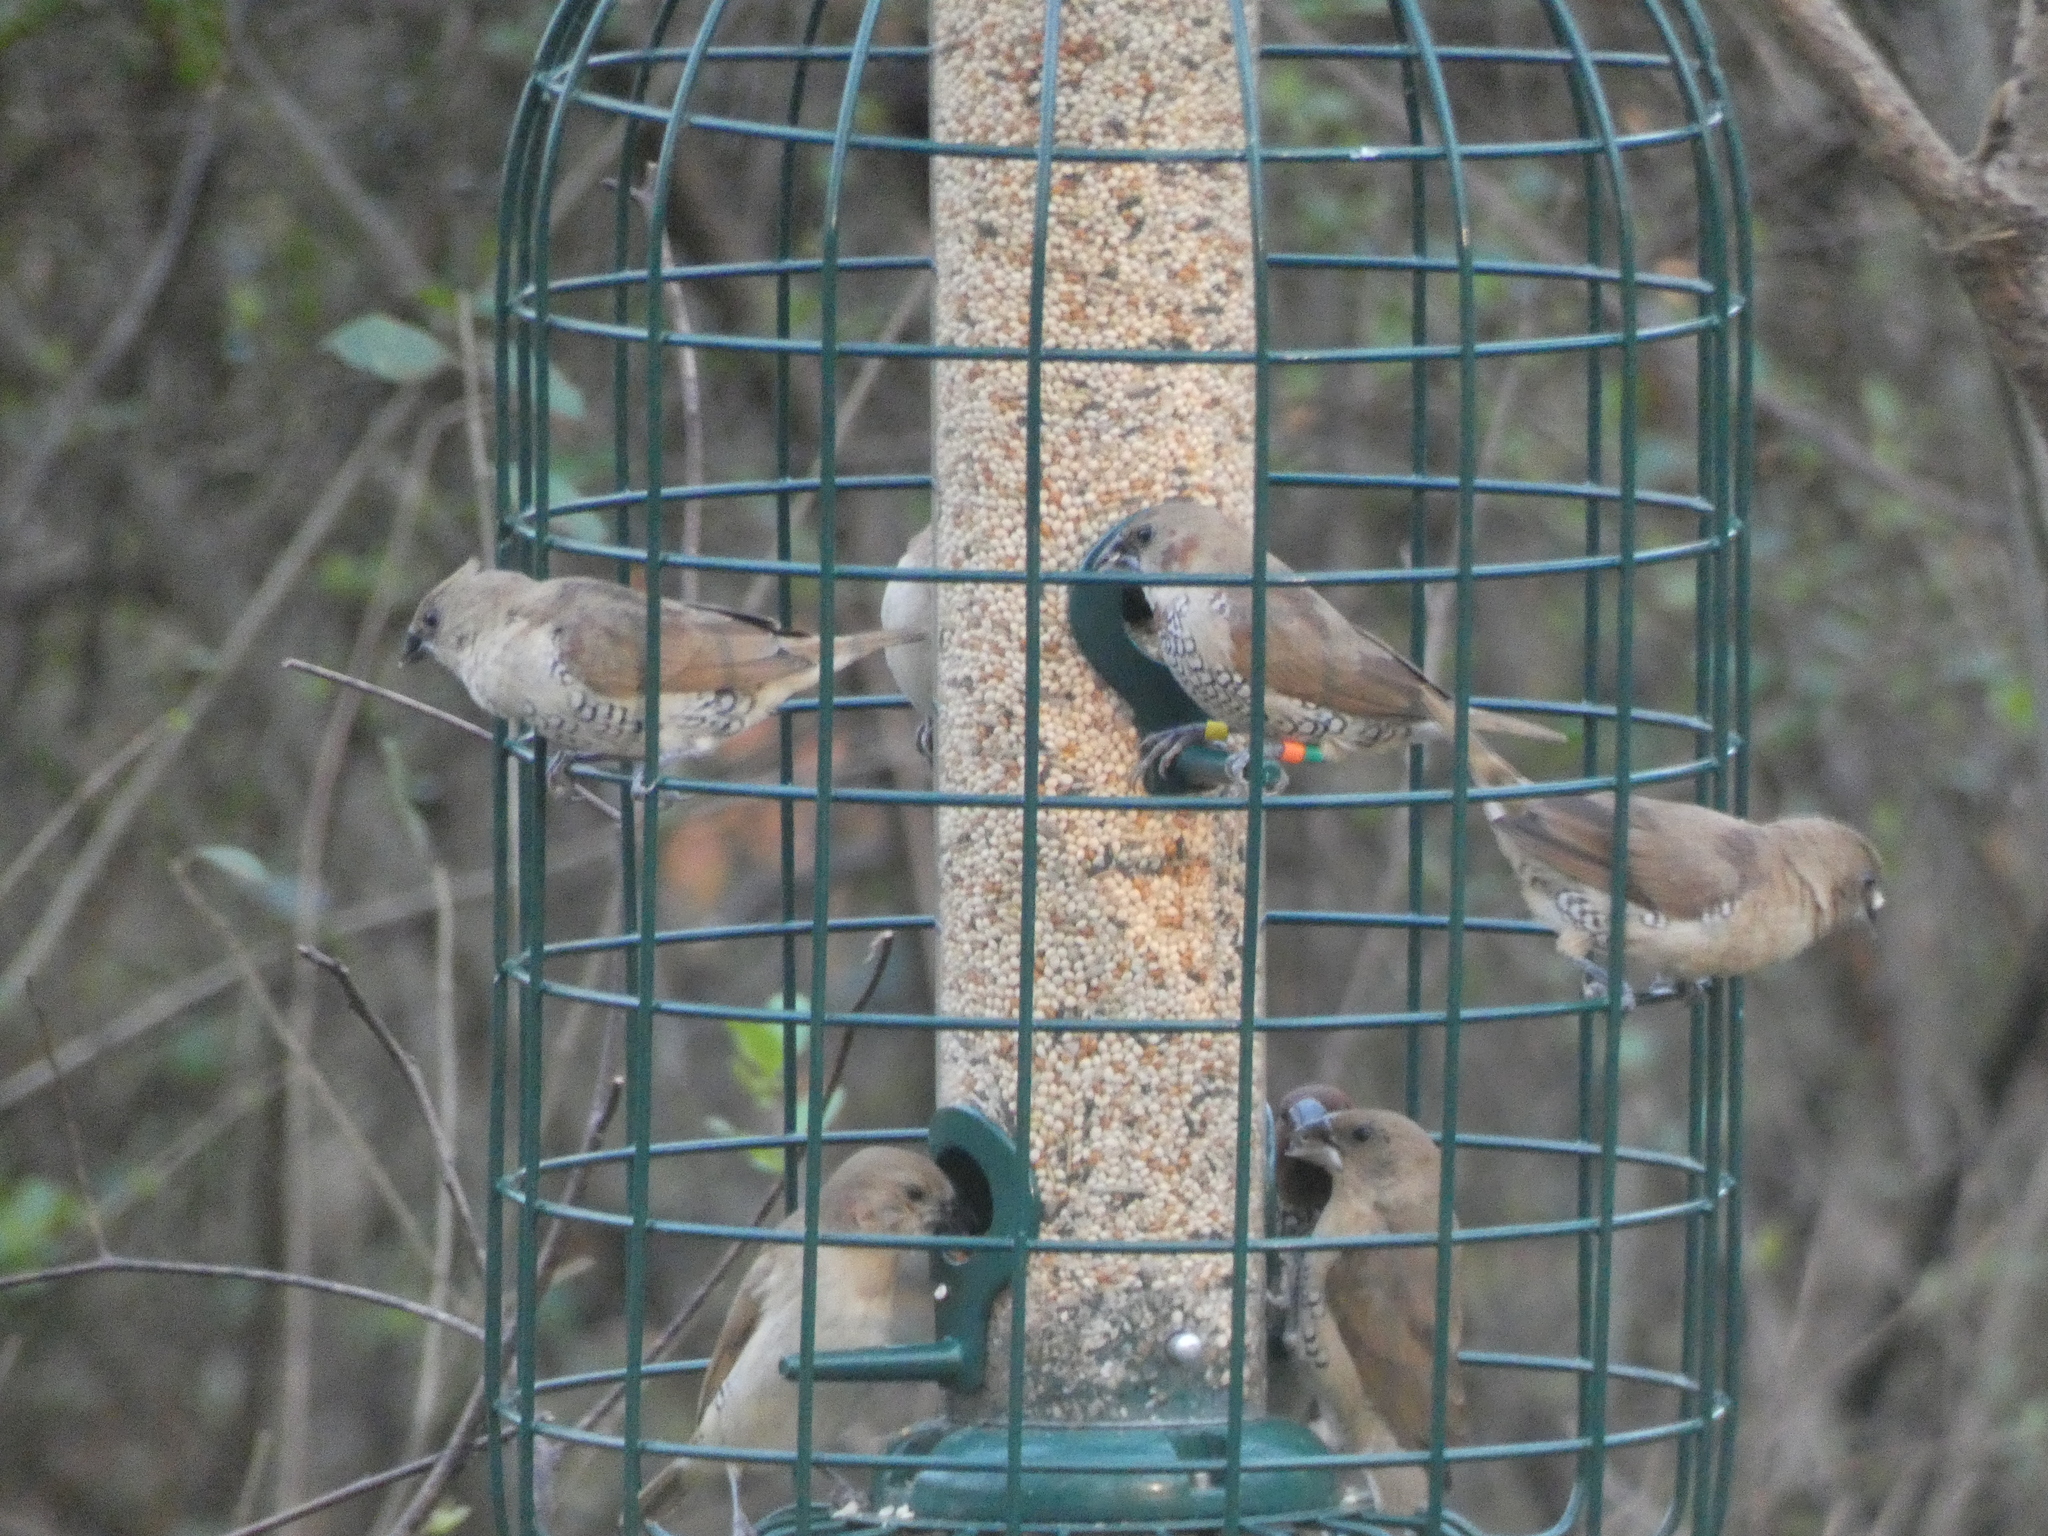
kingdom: Animalia
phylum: Chordata
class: Aves
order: Passeriformes
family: Estrildidae
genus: Lonchura
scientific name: Lonchura punctulata
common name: Scaly-breasted munia
